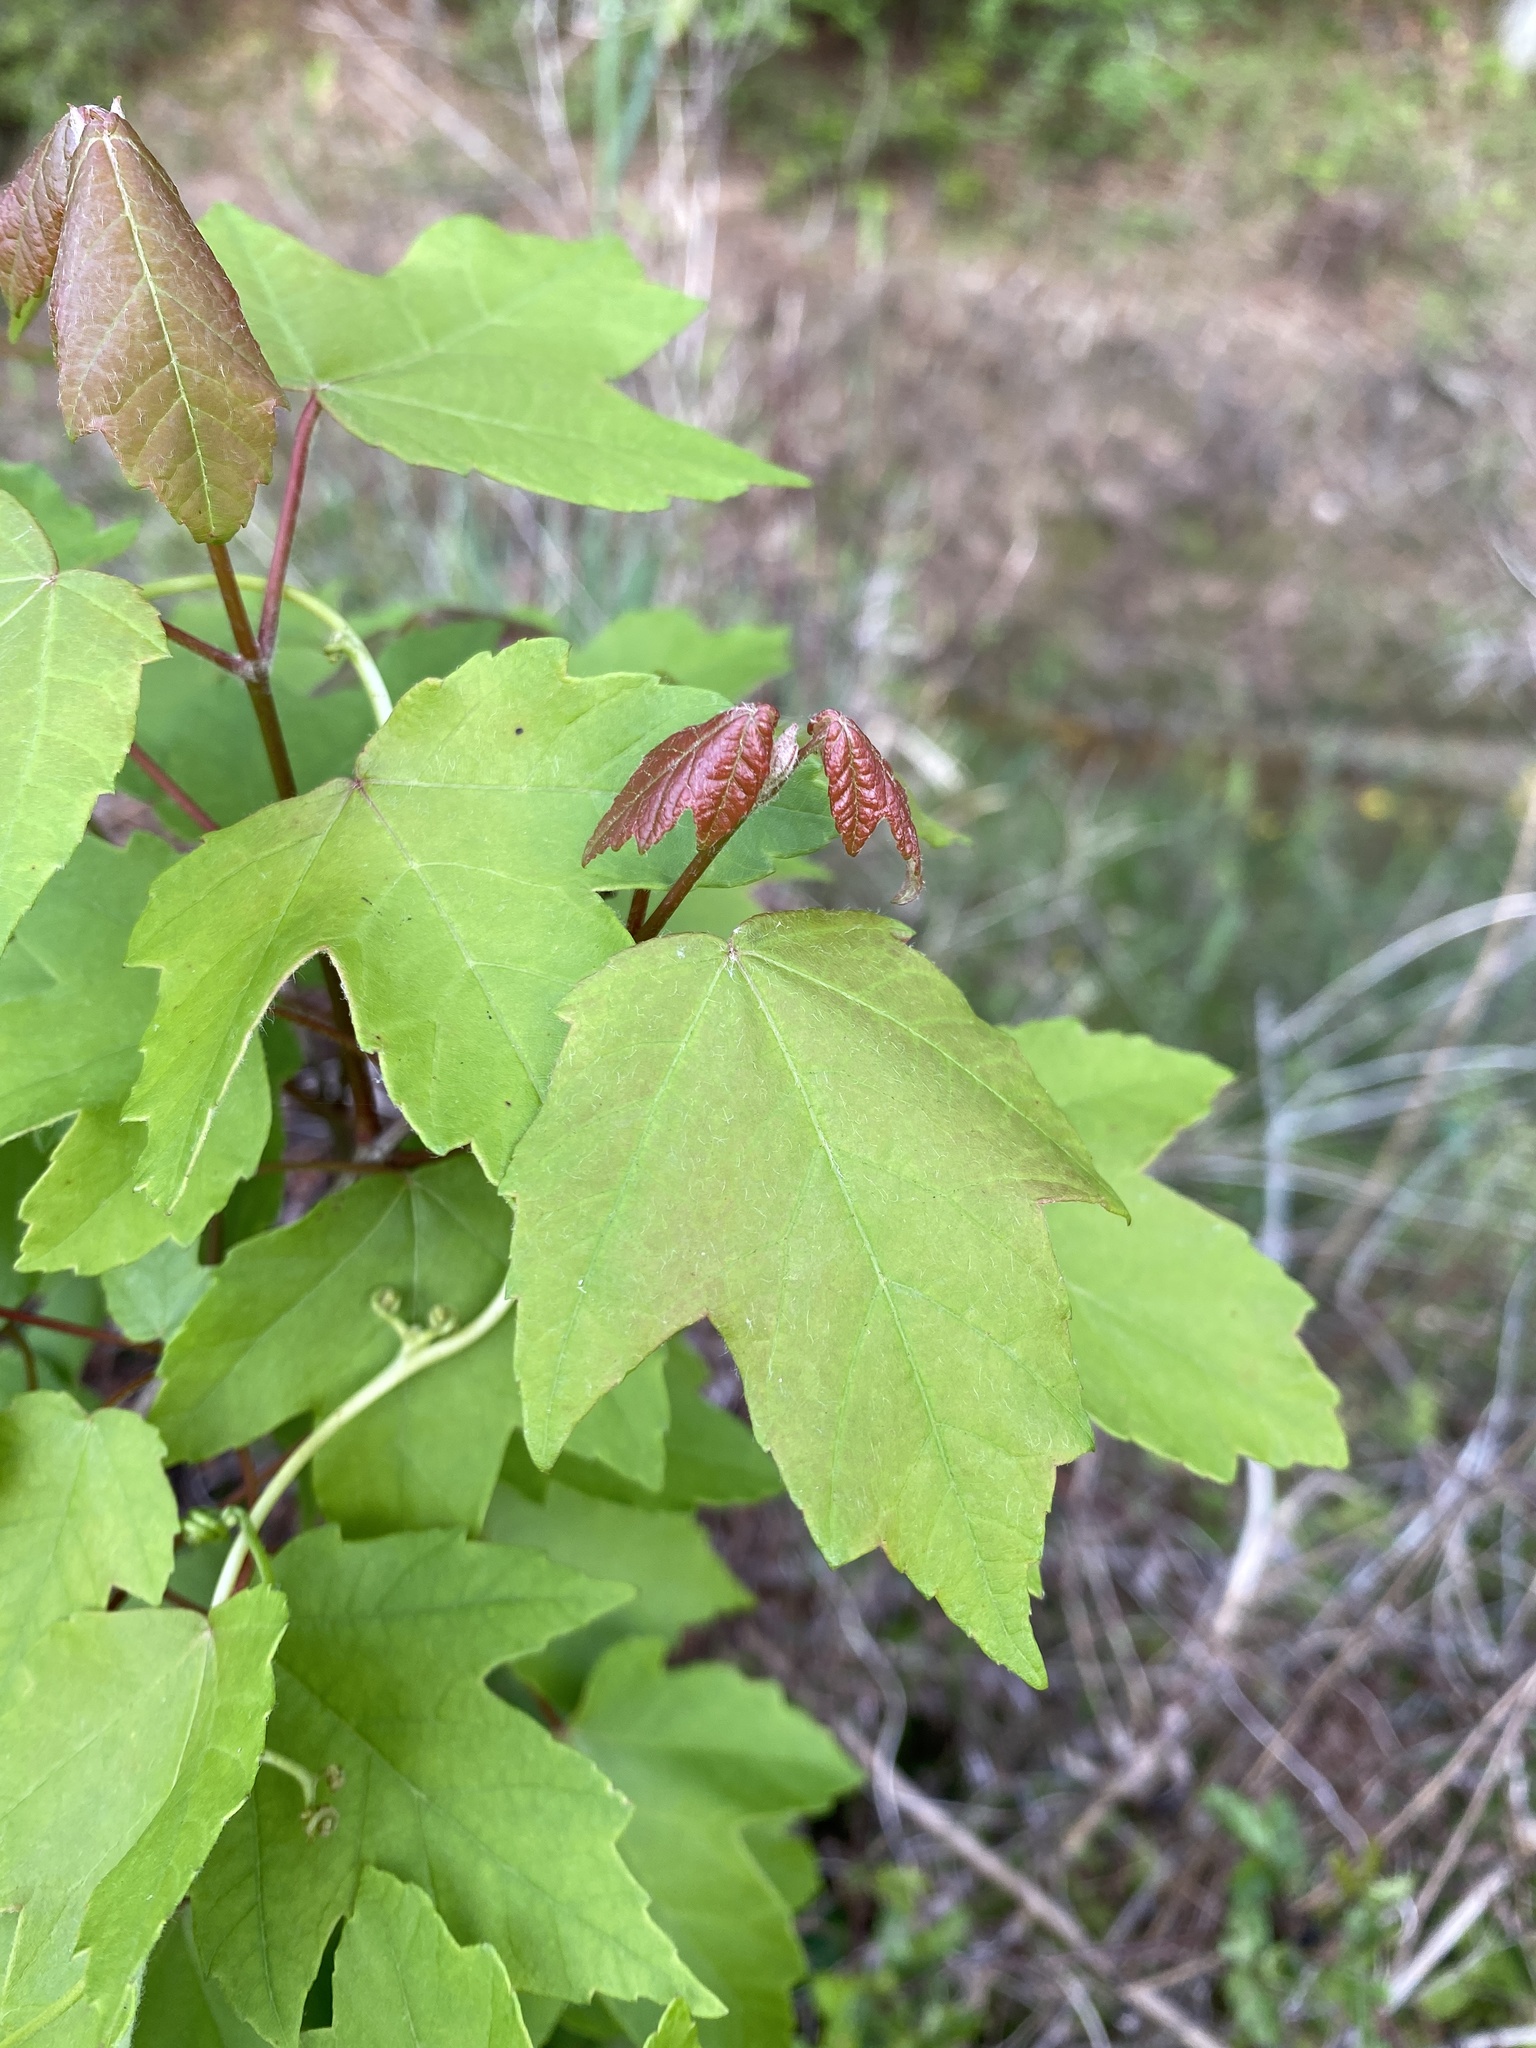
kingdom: Plantae
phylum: Tracheophyta
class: Magnoliopsida
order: Sapindales
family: Sapindaceae
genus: Acer
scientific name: Acer rubrum
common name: Red maple
